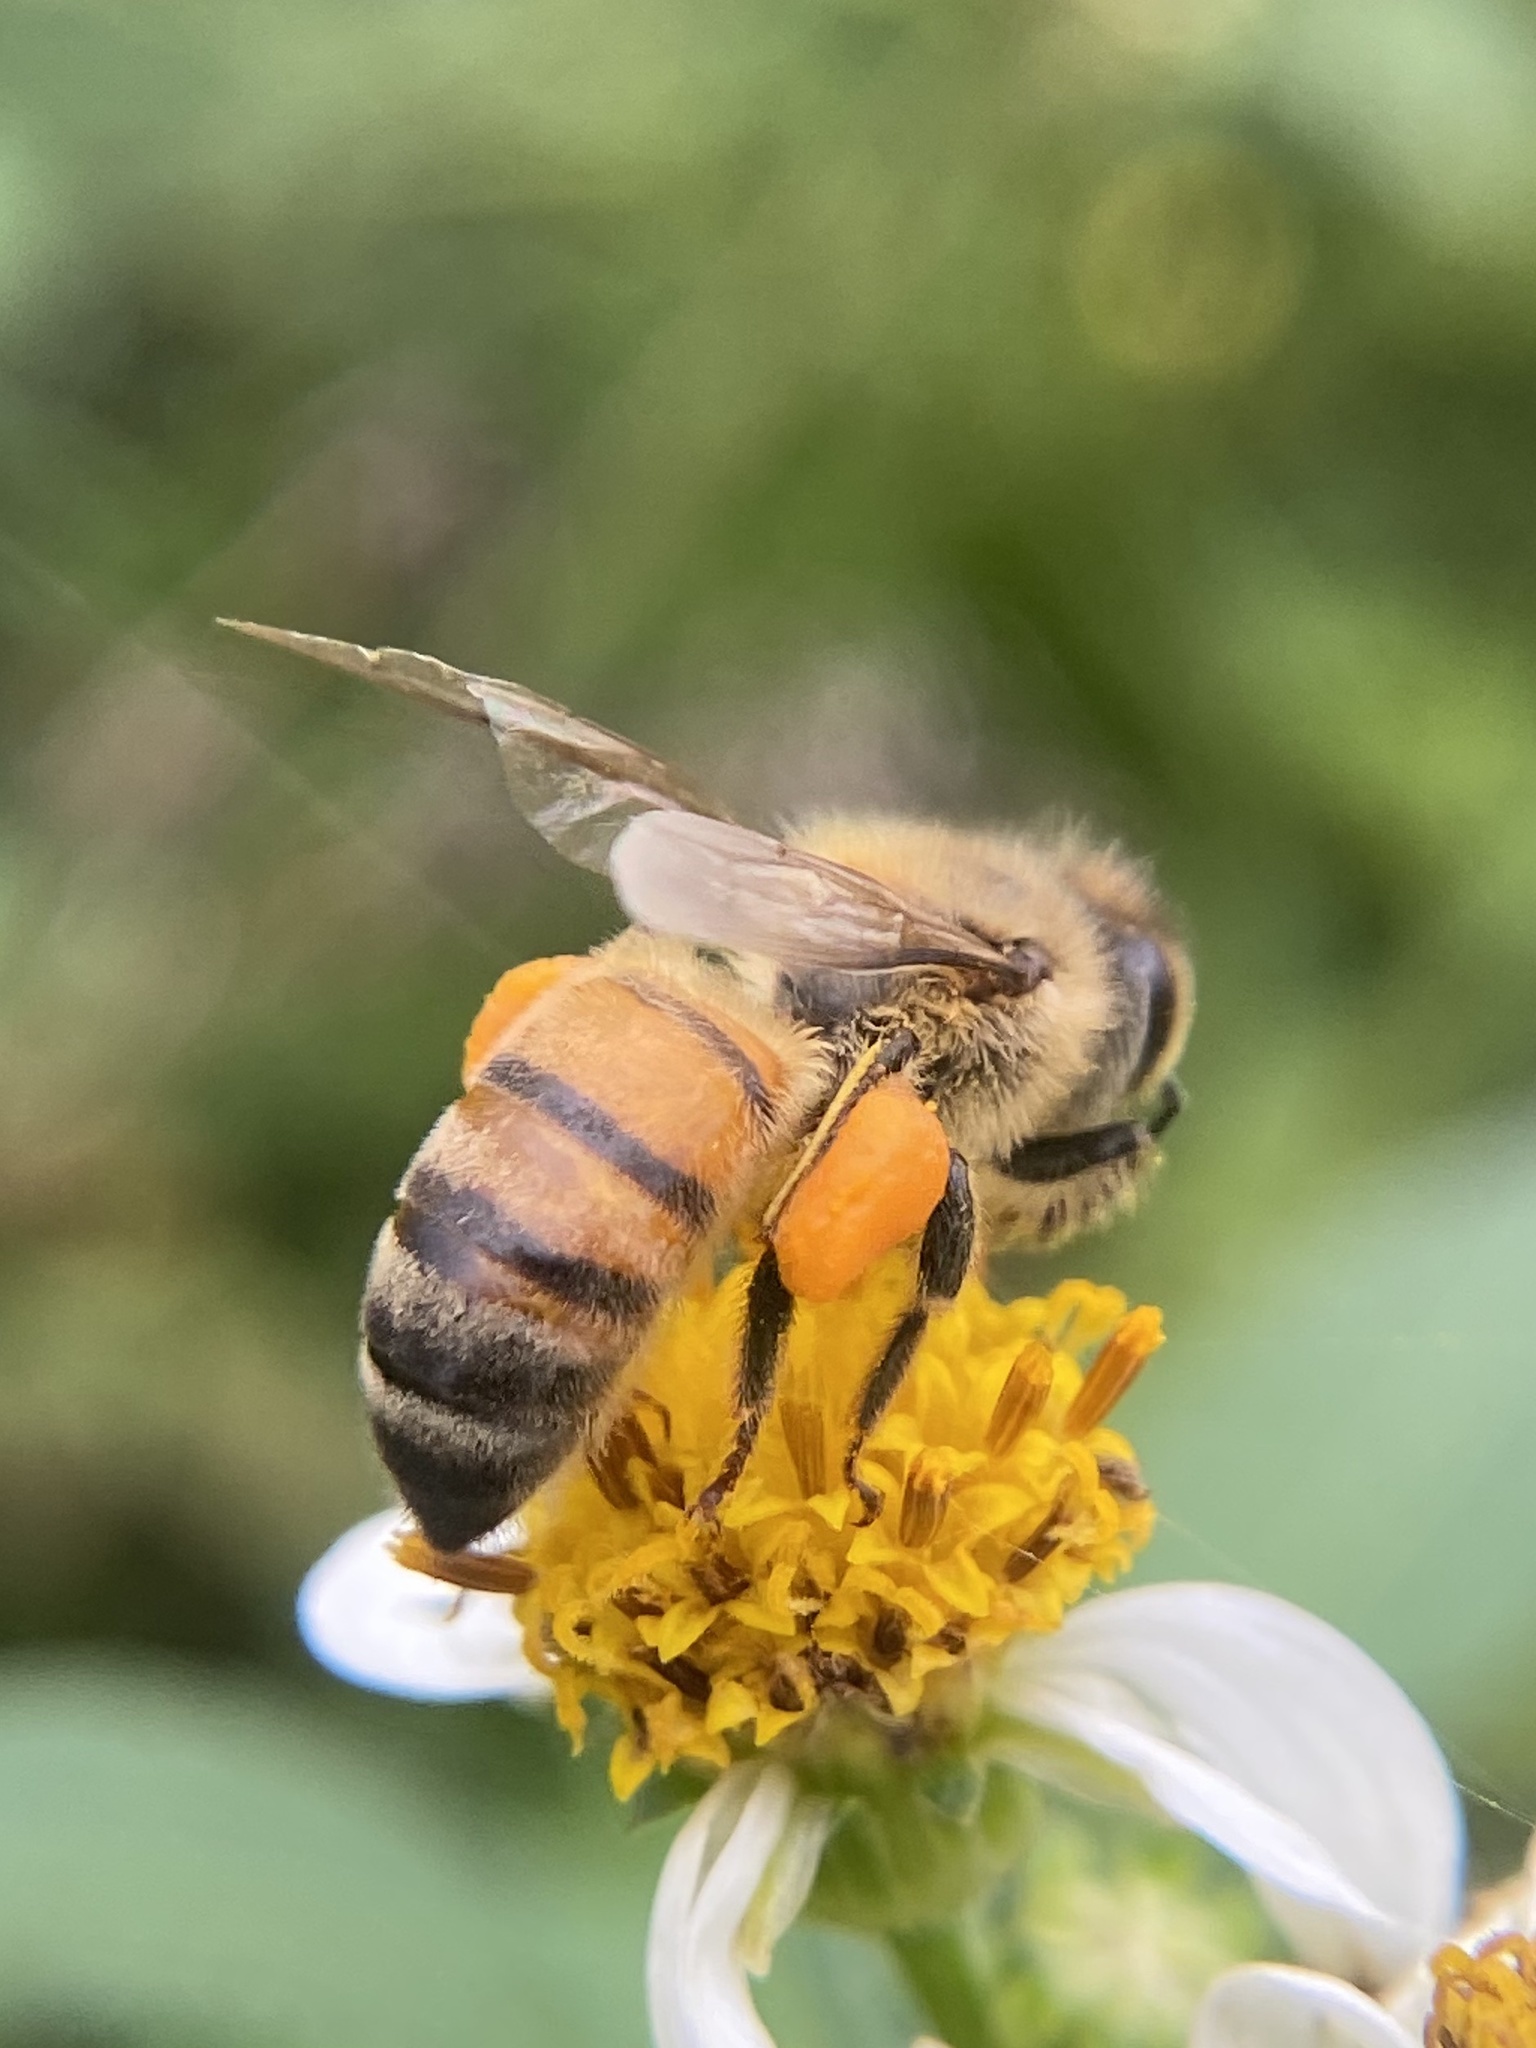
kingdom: Animalia
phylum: Arthropoda
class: Insecta
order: Hymenoptera
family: Apidae
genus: Apis
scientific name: Apis mellifera
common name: Honey bee
